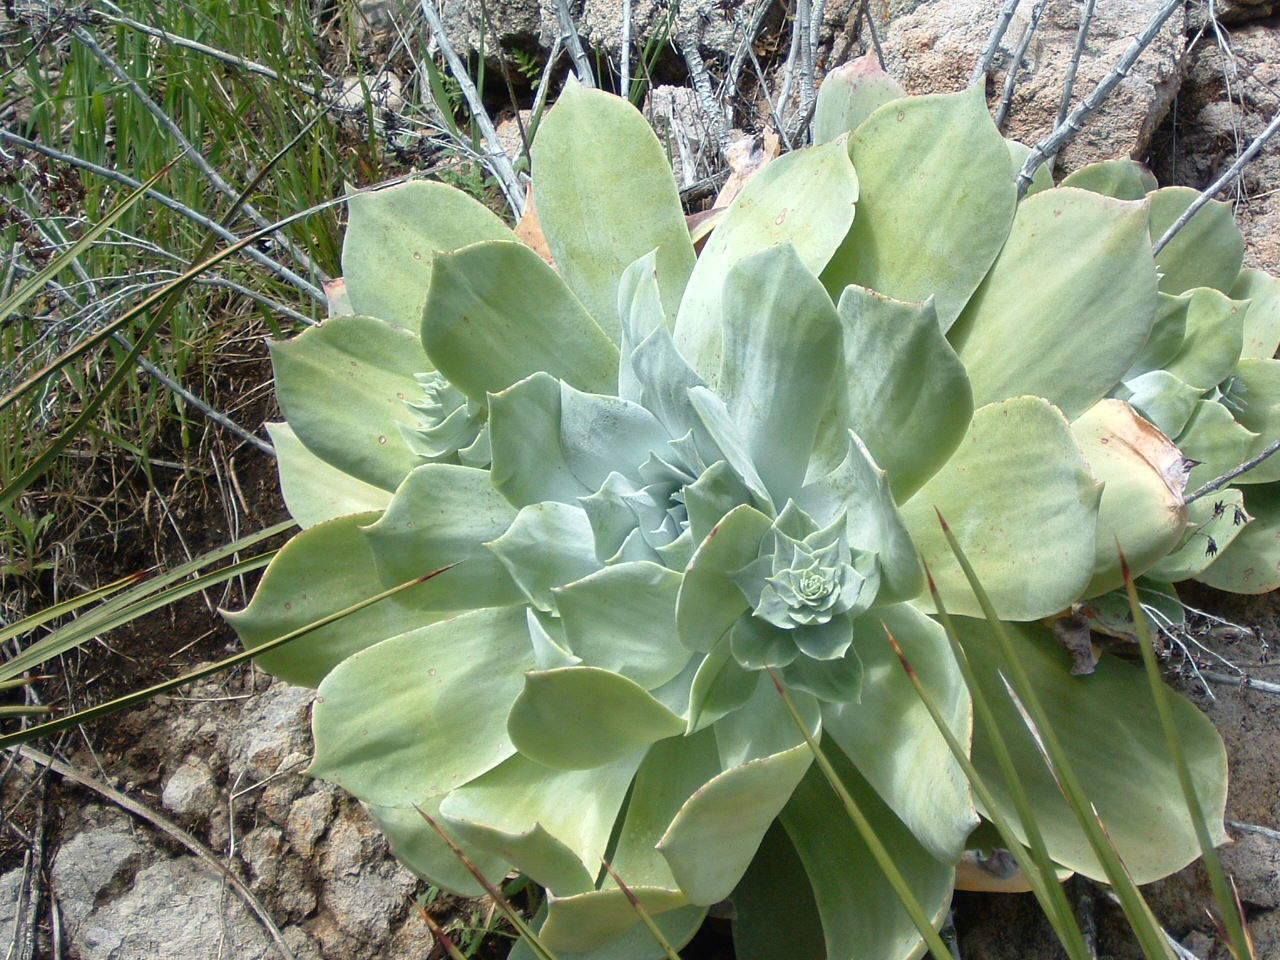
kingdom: Plantae
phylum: Tracheophyta
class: Magnoliopsida
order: Saxifragales
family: Crassulaceae
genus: Dudleya
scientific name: Dudleya pulverulenta
